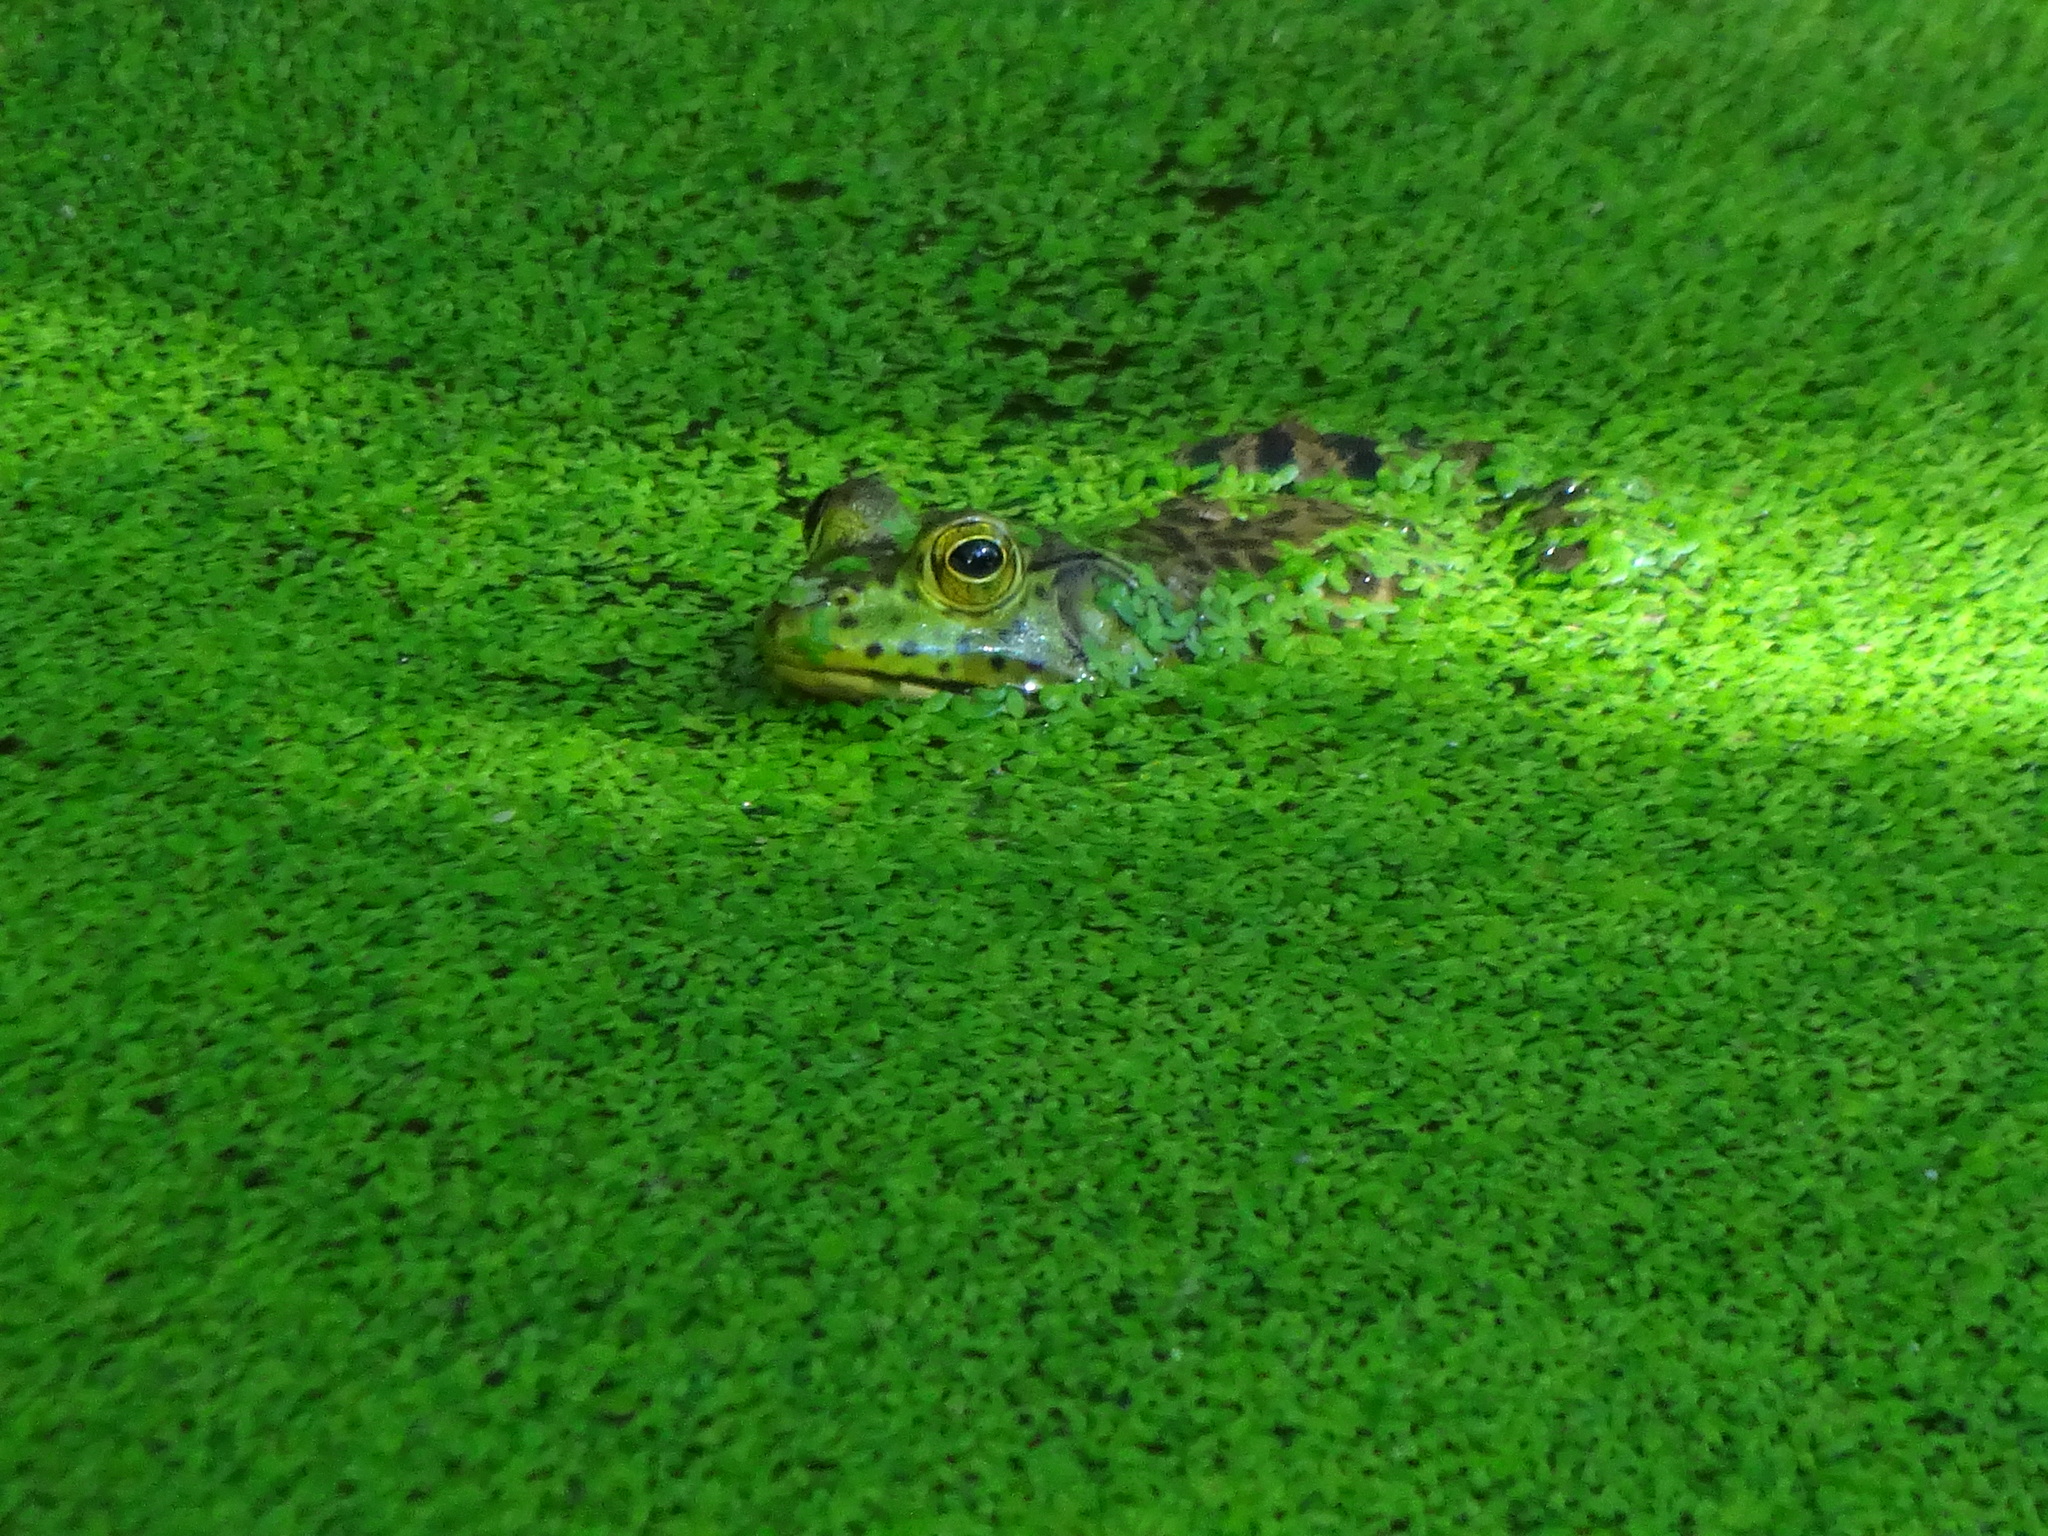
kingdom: Animalia
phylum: Chordata
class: Amphibia
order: Anura
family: Ranidae
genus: Lithobates
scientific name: Lithobates catesbeianus
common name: American bullfrog
